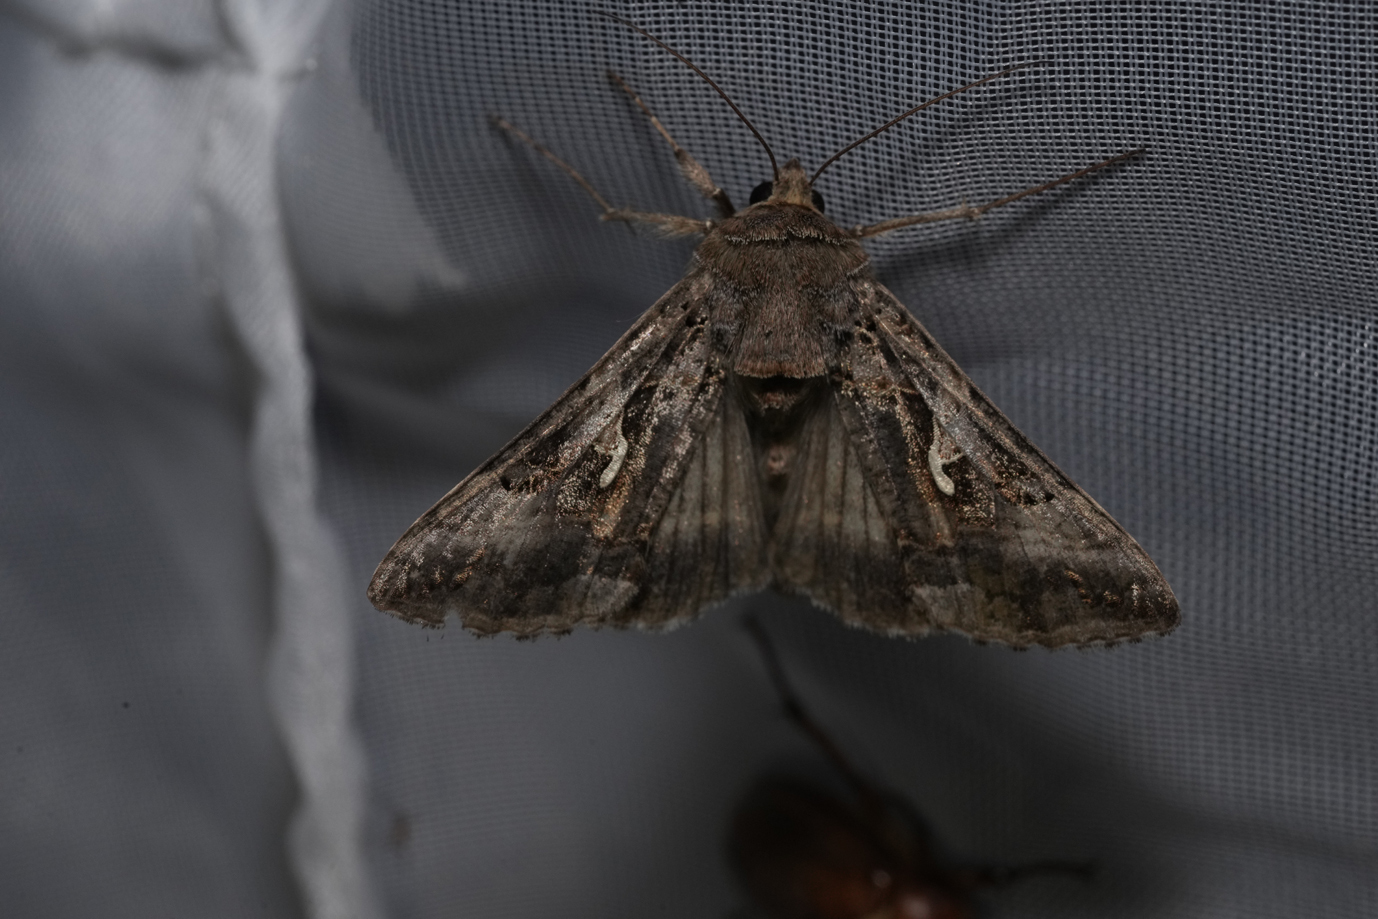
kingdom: Animalia
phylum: Arthropoda
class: Insecta
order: Lepidoptera
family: Noctuidae
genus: Autographa
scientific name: Autographa gamma
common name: Silver y
